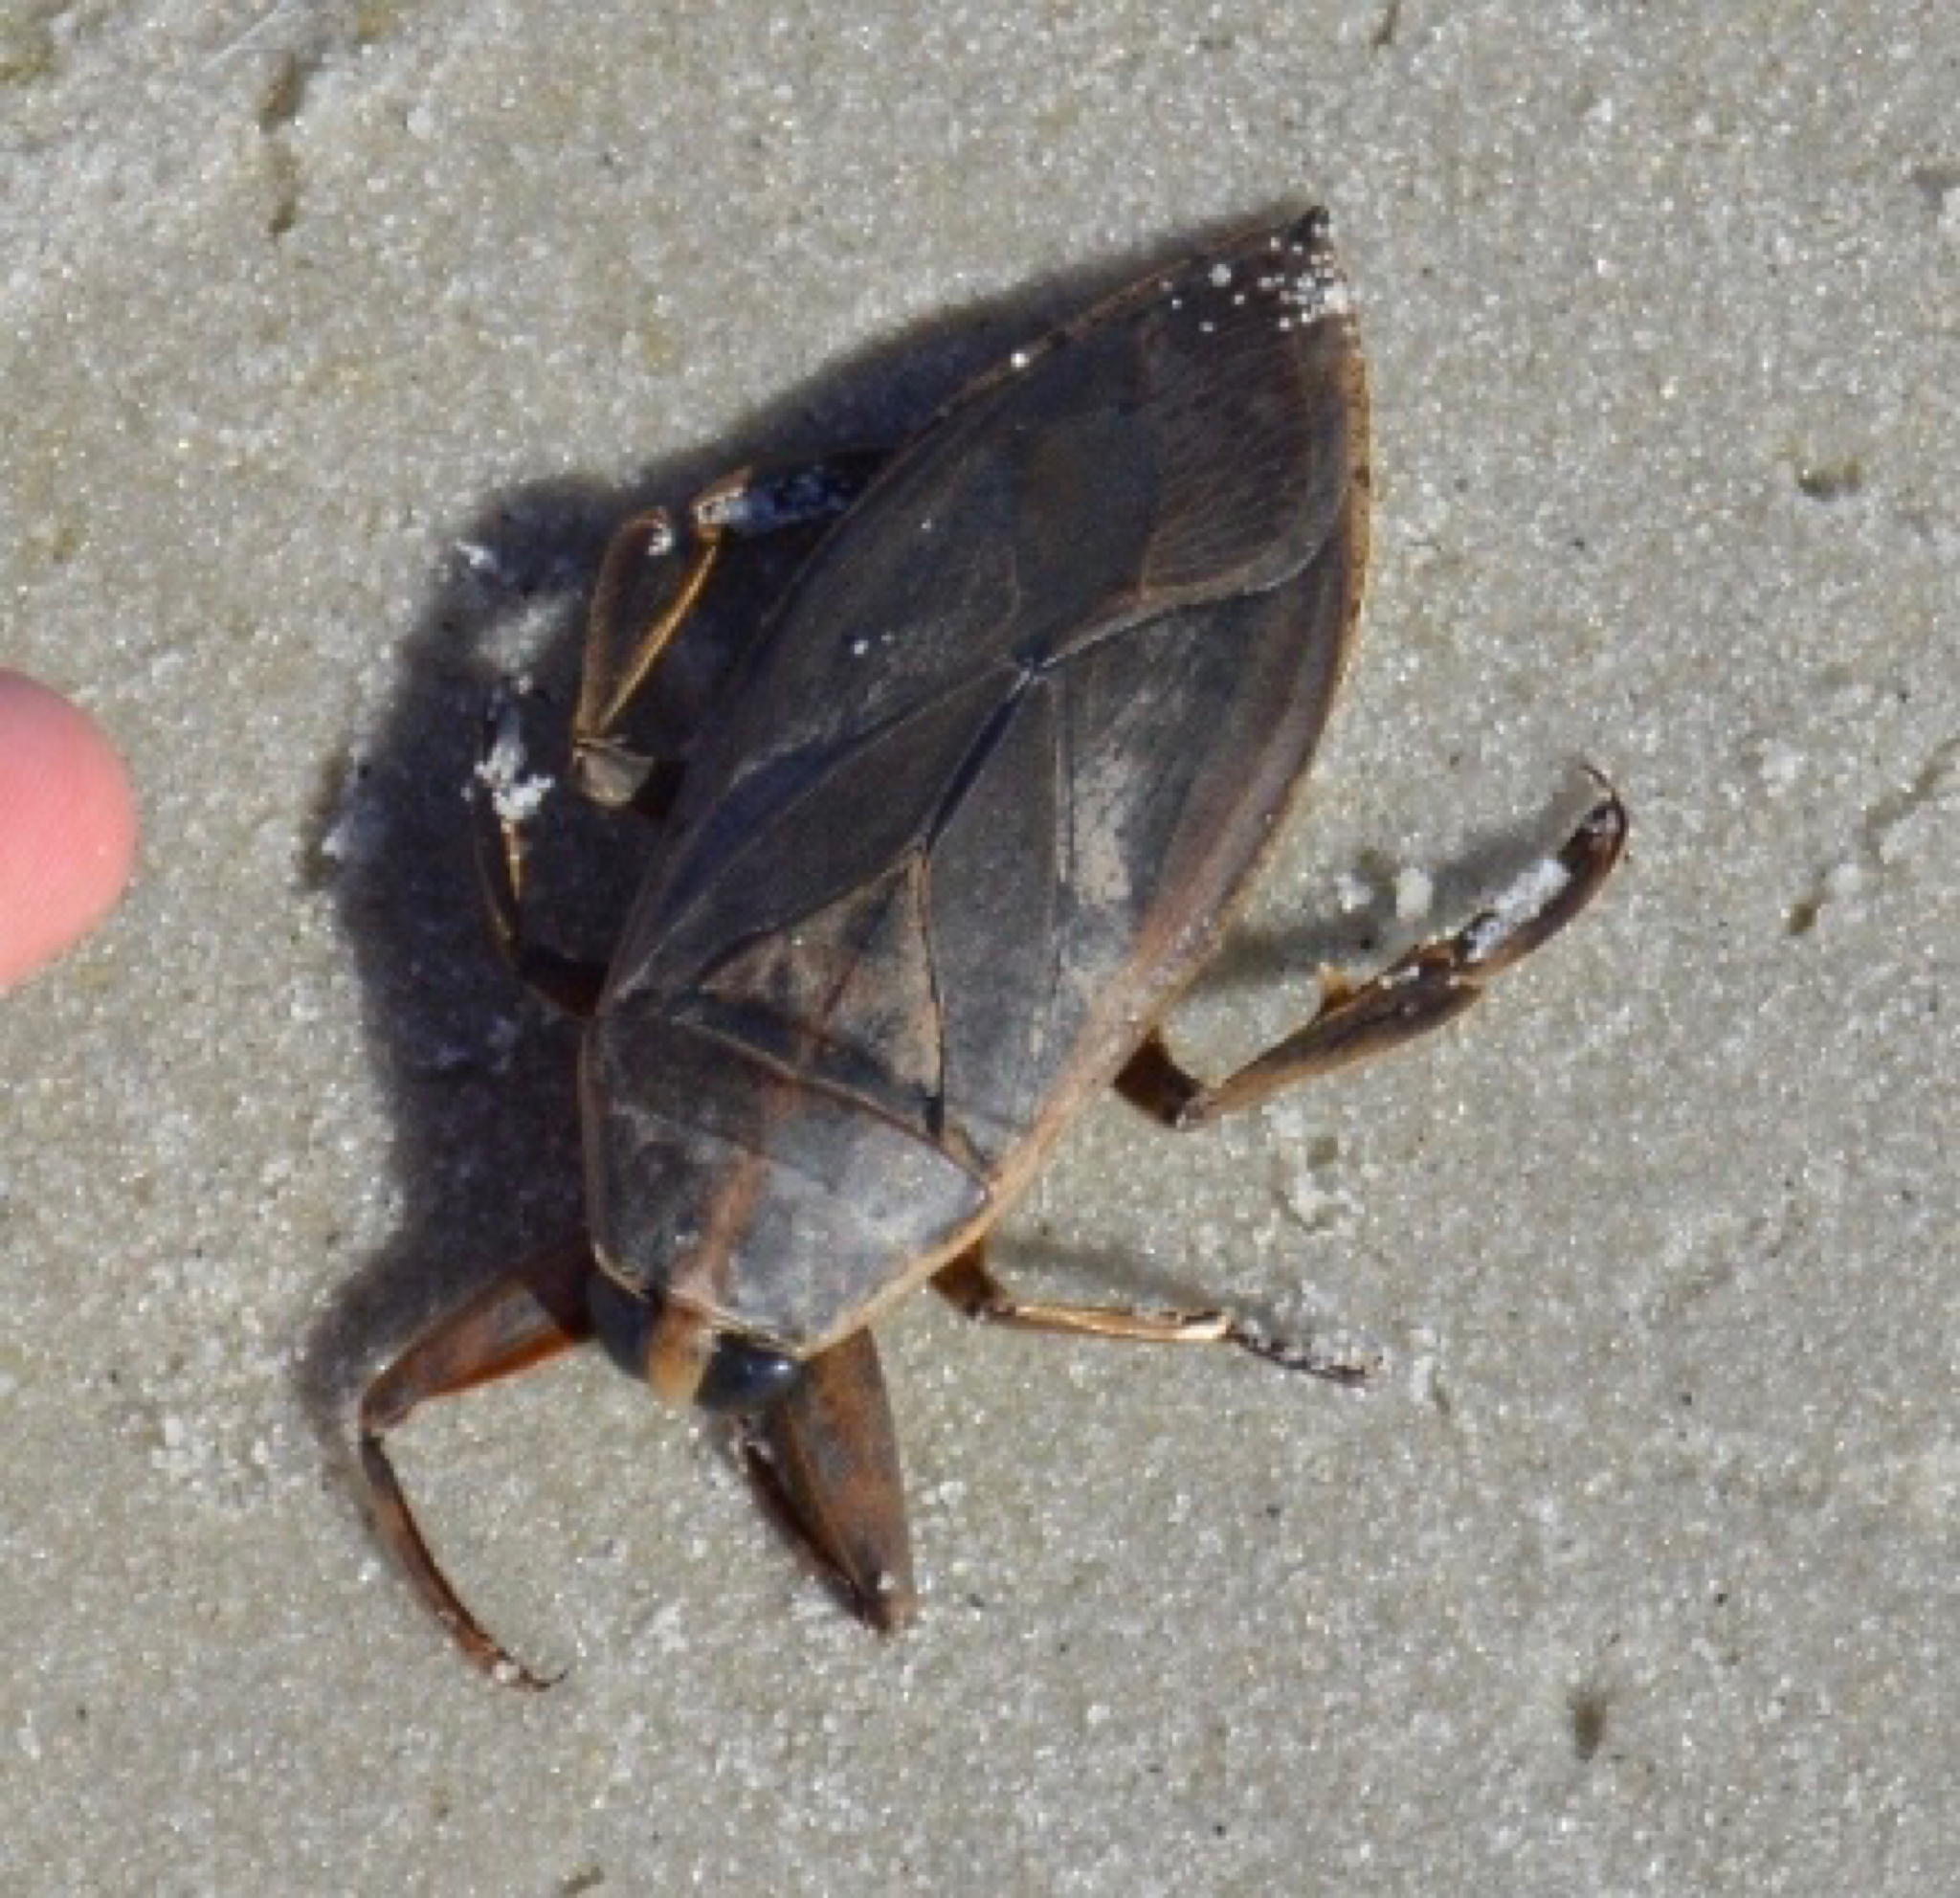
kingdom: Animalia
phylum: Arthropoda
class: Insecta
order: Hemiptera
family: Belostomatidae
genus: Benacus
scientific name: Benacus griseus
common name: Eastern toe-biter
